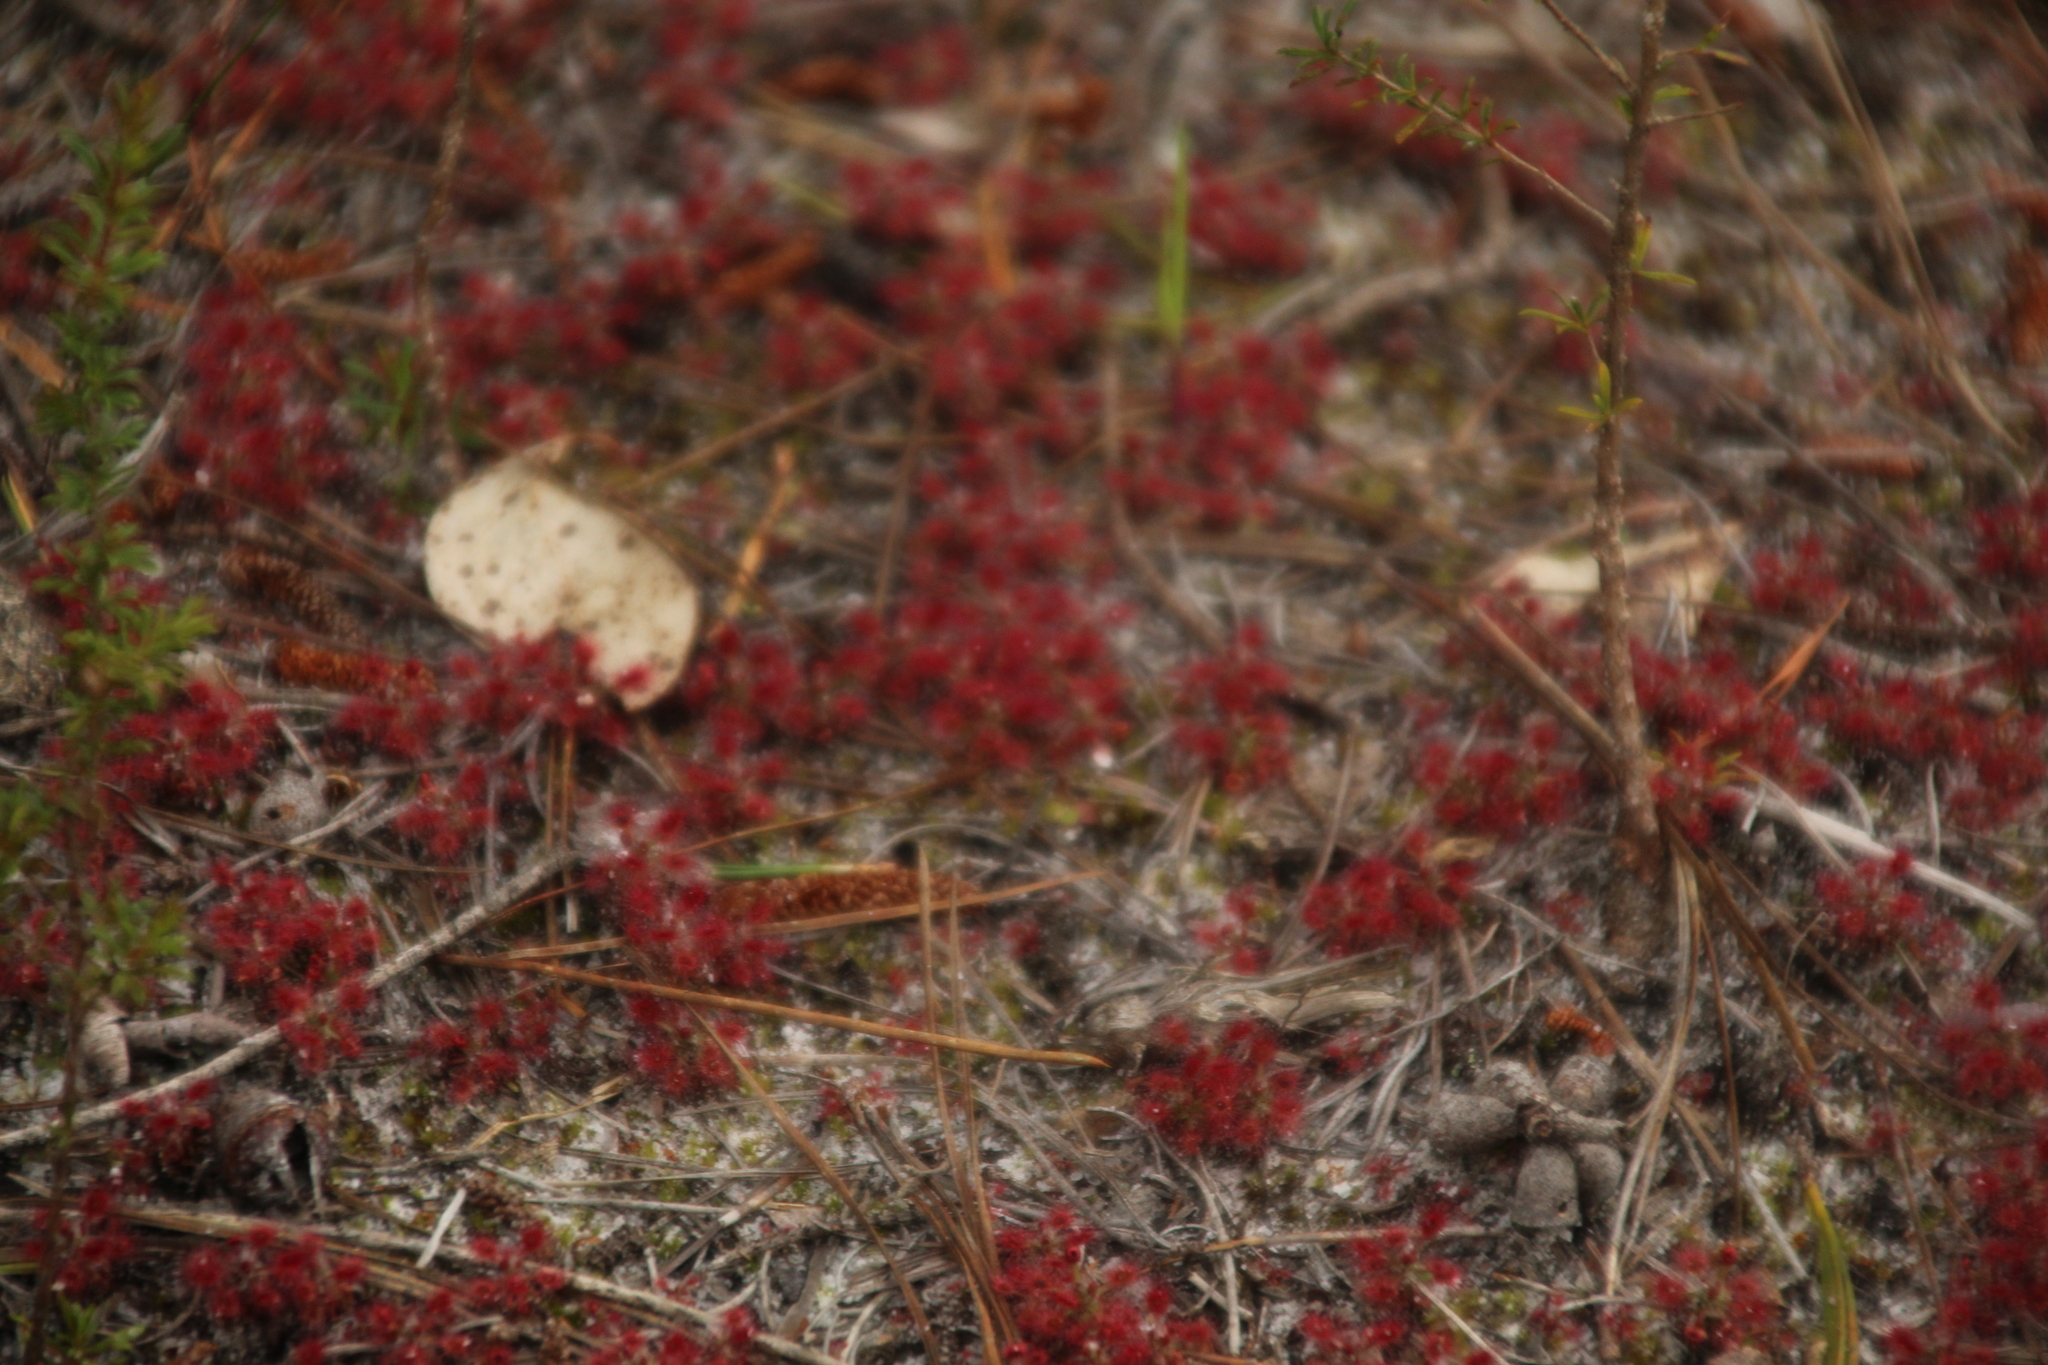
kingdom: Plantae
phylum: Tracheophyta
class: Magnoliopsida
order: Caryophyllales
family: Droseraceae
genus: Drosera
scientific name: Drosera paleacea
